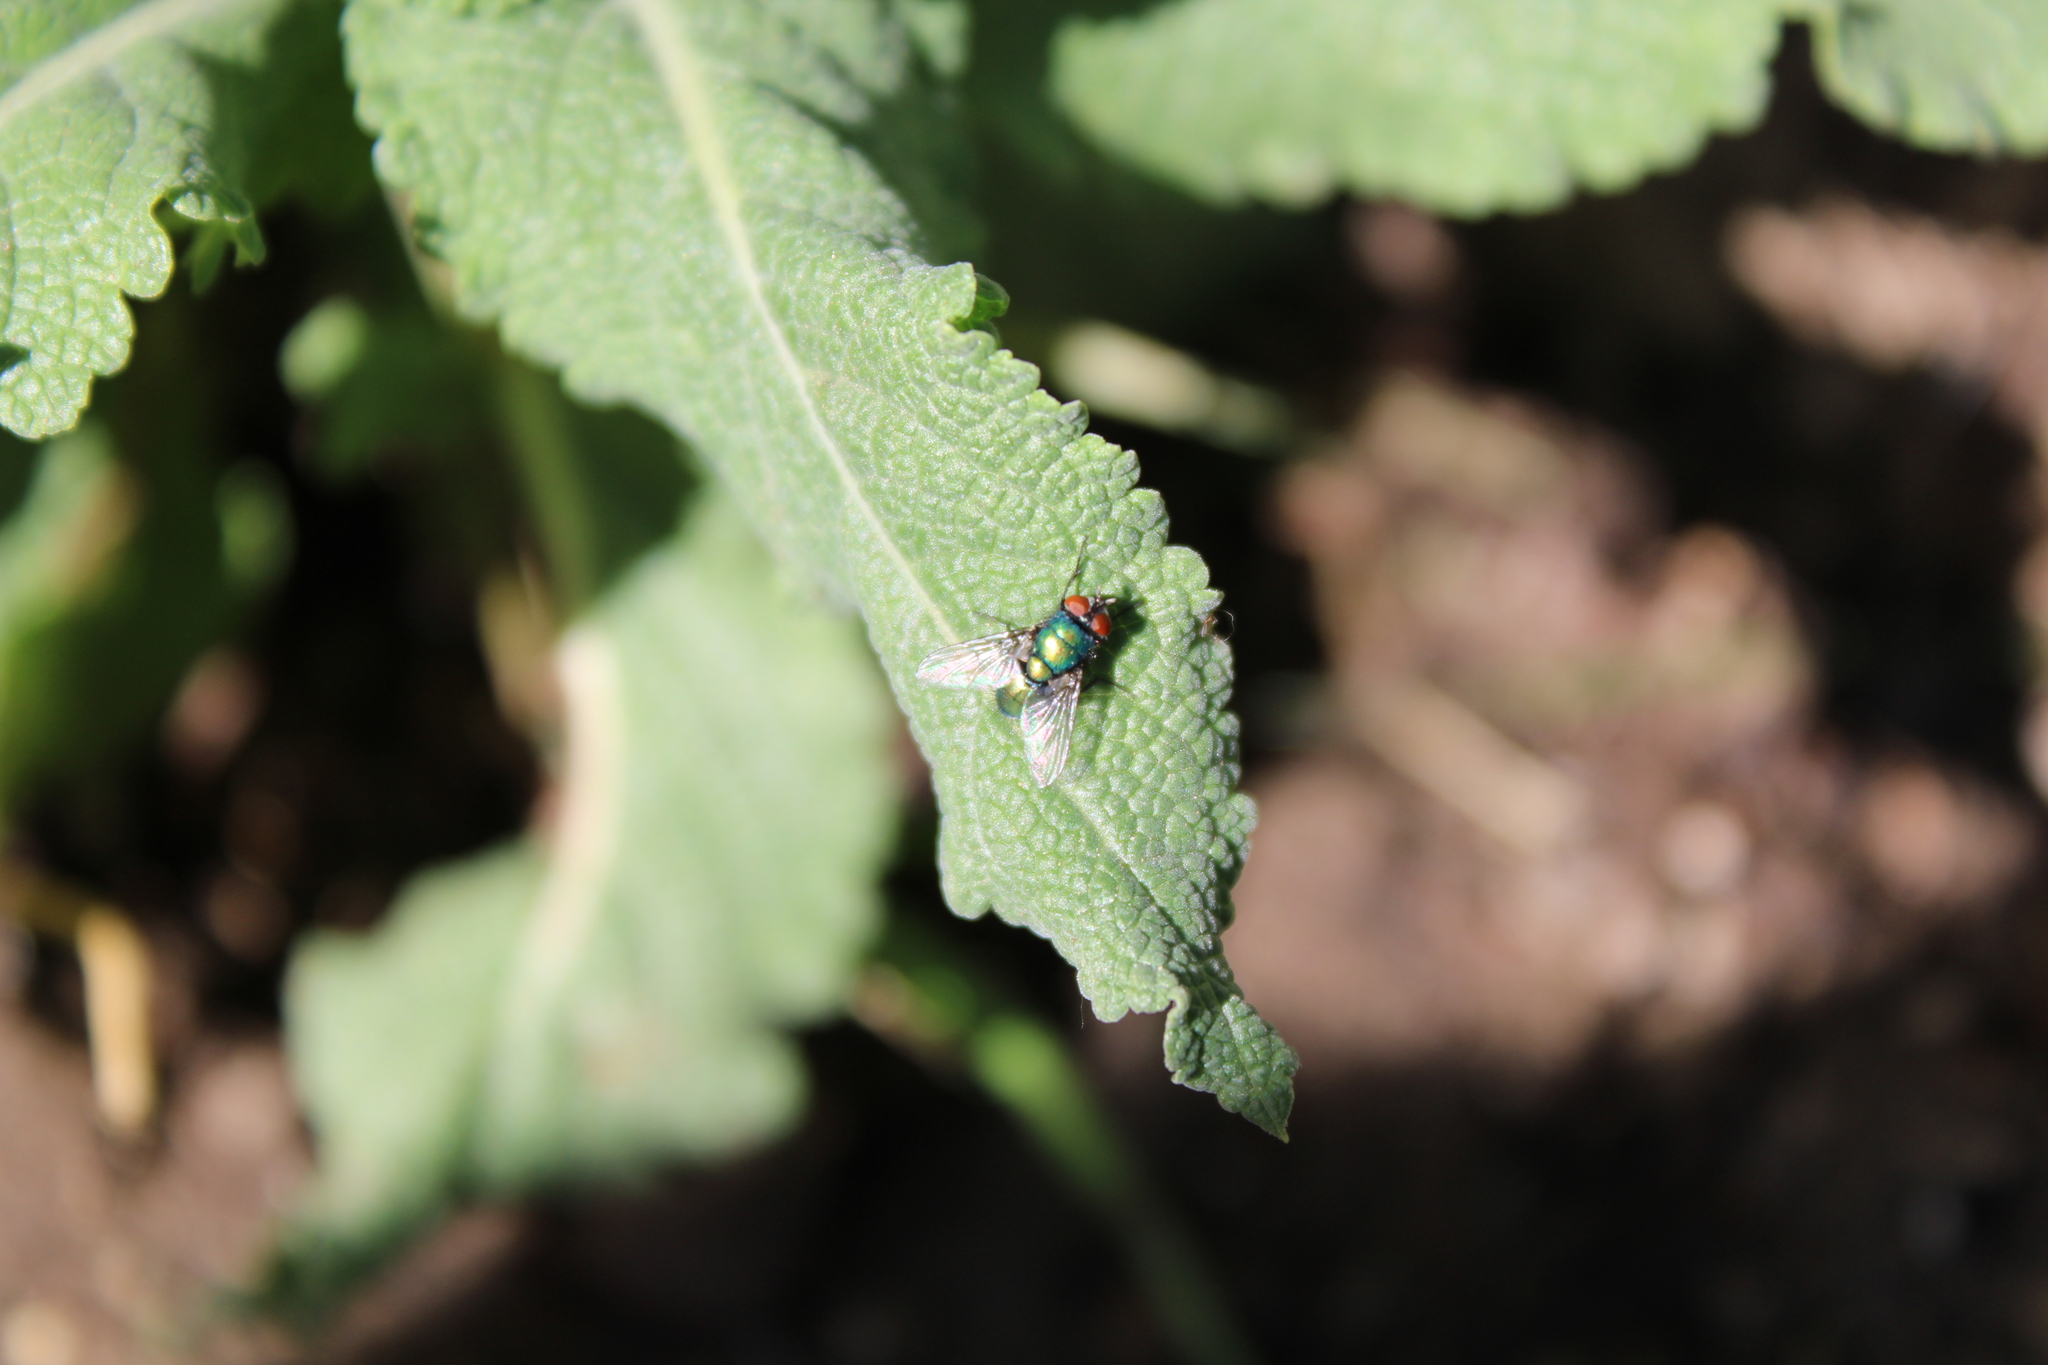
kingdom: Animalia
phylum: Arthropoda
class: Insecta
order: Diptera
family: Calliphoridae
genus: Lucilia
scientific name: Lucilia sericata
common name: Blow fly
